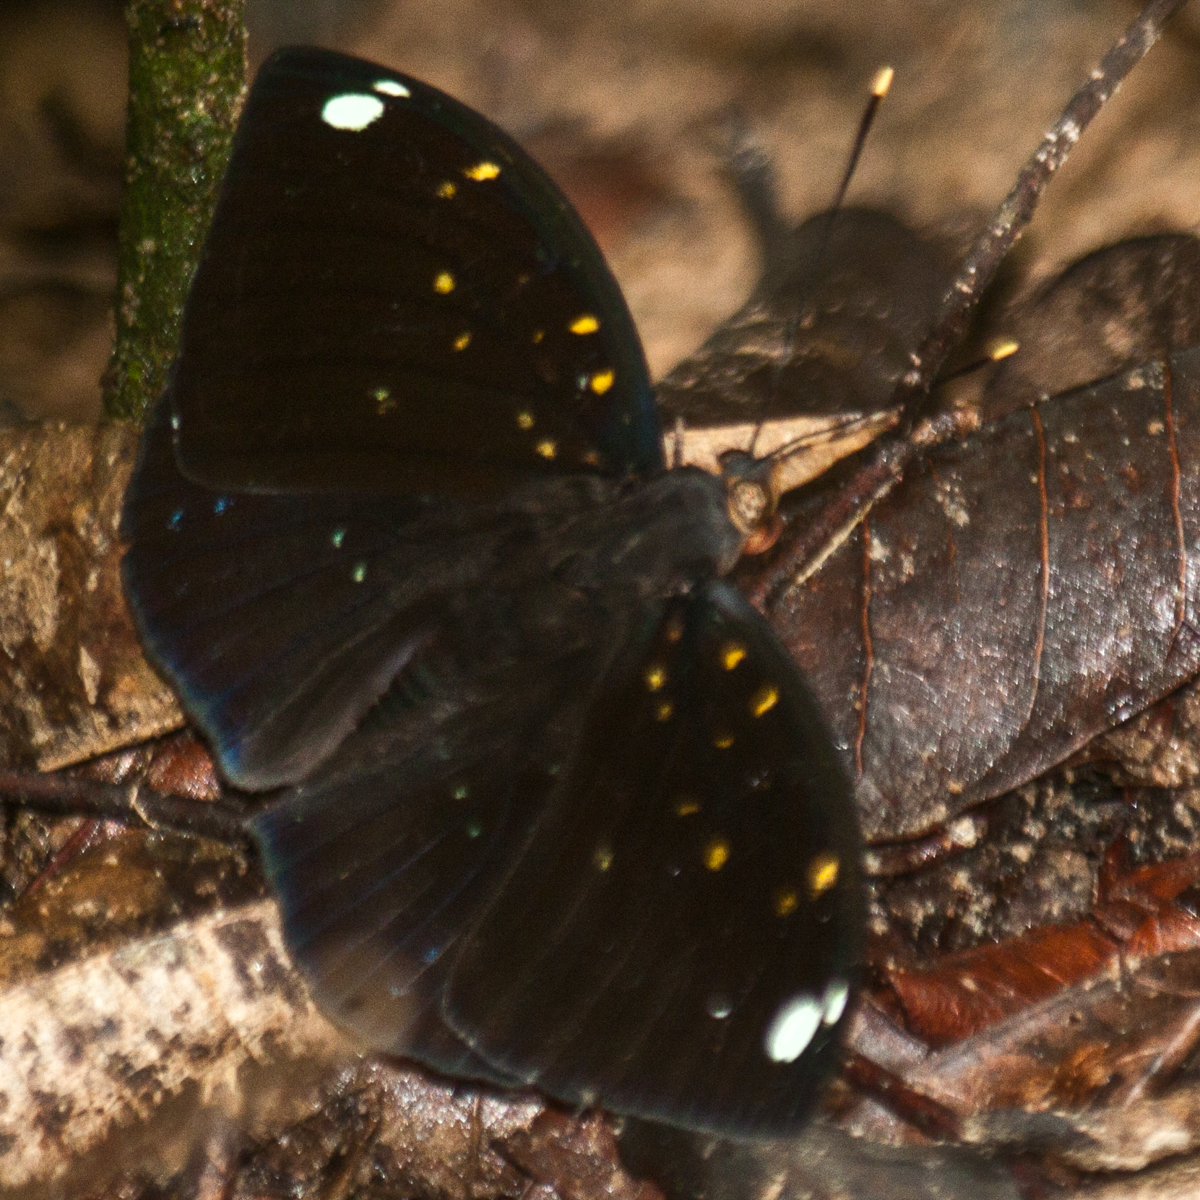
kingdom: Animalia
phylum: Arthropoda
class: Insecta
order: Lepidoptera
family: Nymphalidae
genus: Lexias
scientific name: Lexias
